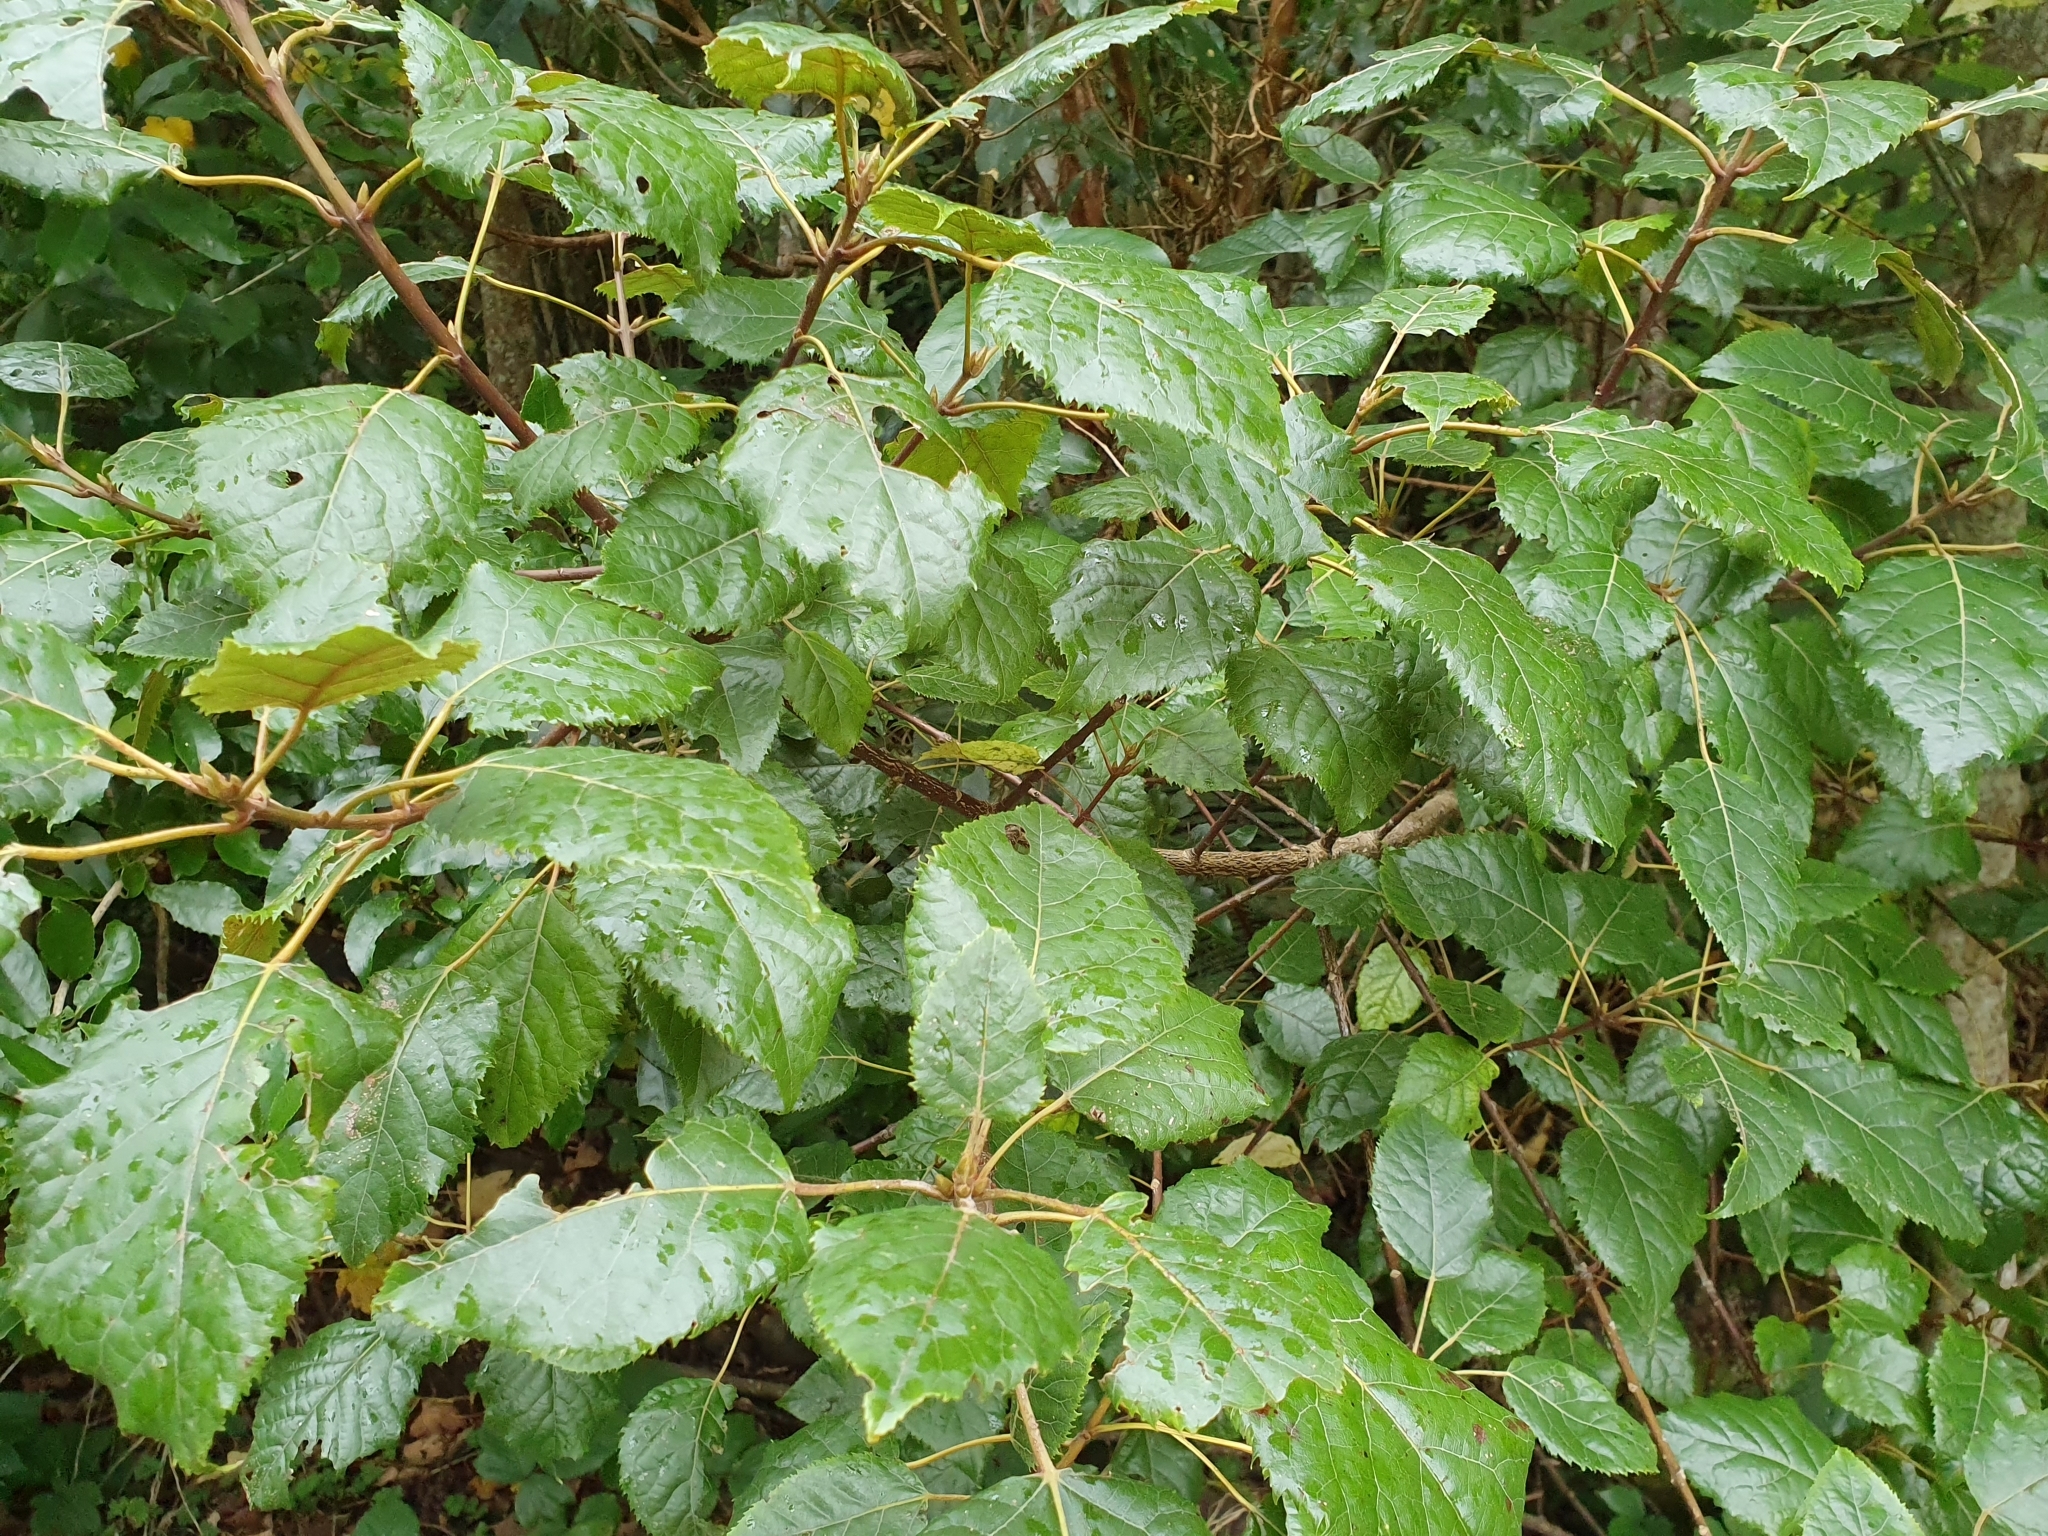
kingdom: Plantae
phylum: Tracheophyta
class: Magnoliopsida
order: Oxalidales
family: Elaeocarpaceae
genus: Aristotelia
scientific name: Aristotelia serrata
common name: New zealand wineberry
